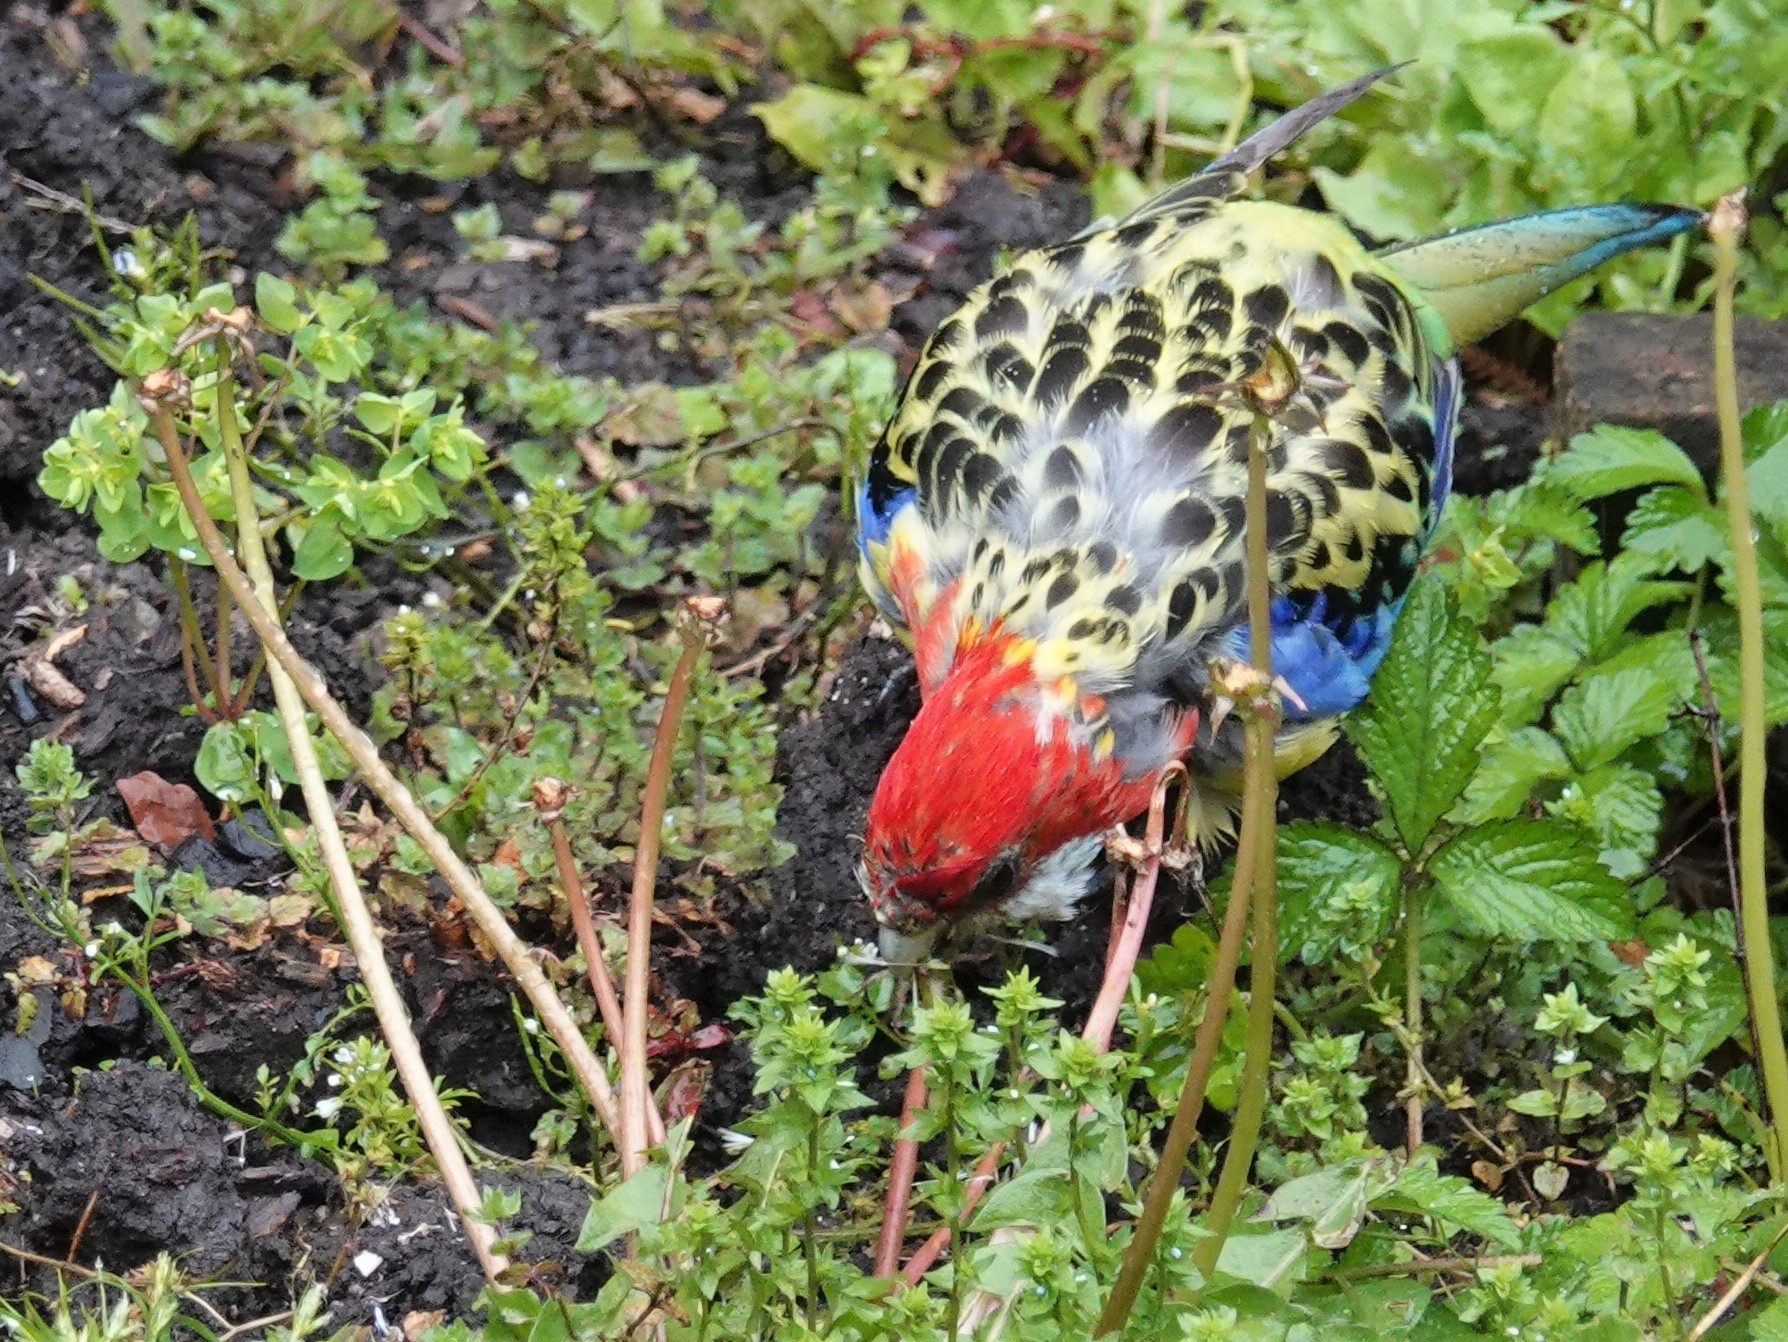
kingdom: Animalia
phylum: Chordata
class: Aves
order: Psittaciformes
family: Psittacidae
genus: Platycercus
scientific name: Platycercus eximius
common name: Eastern rosella
